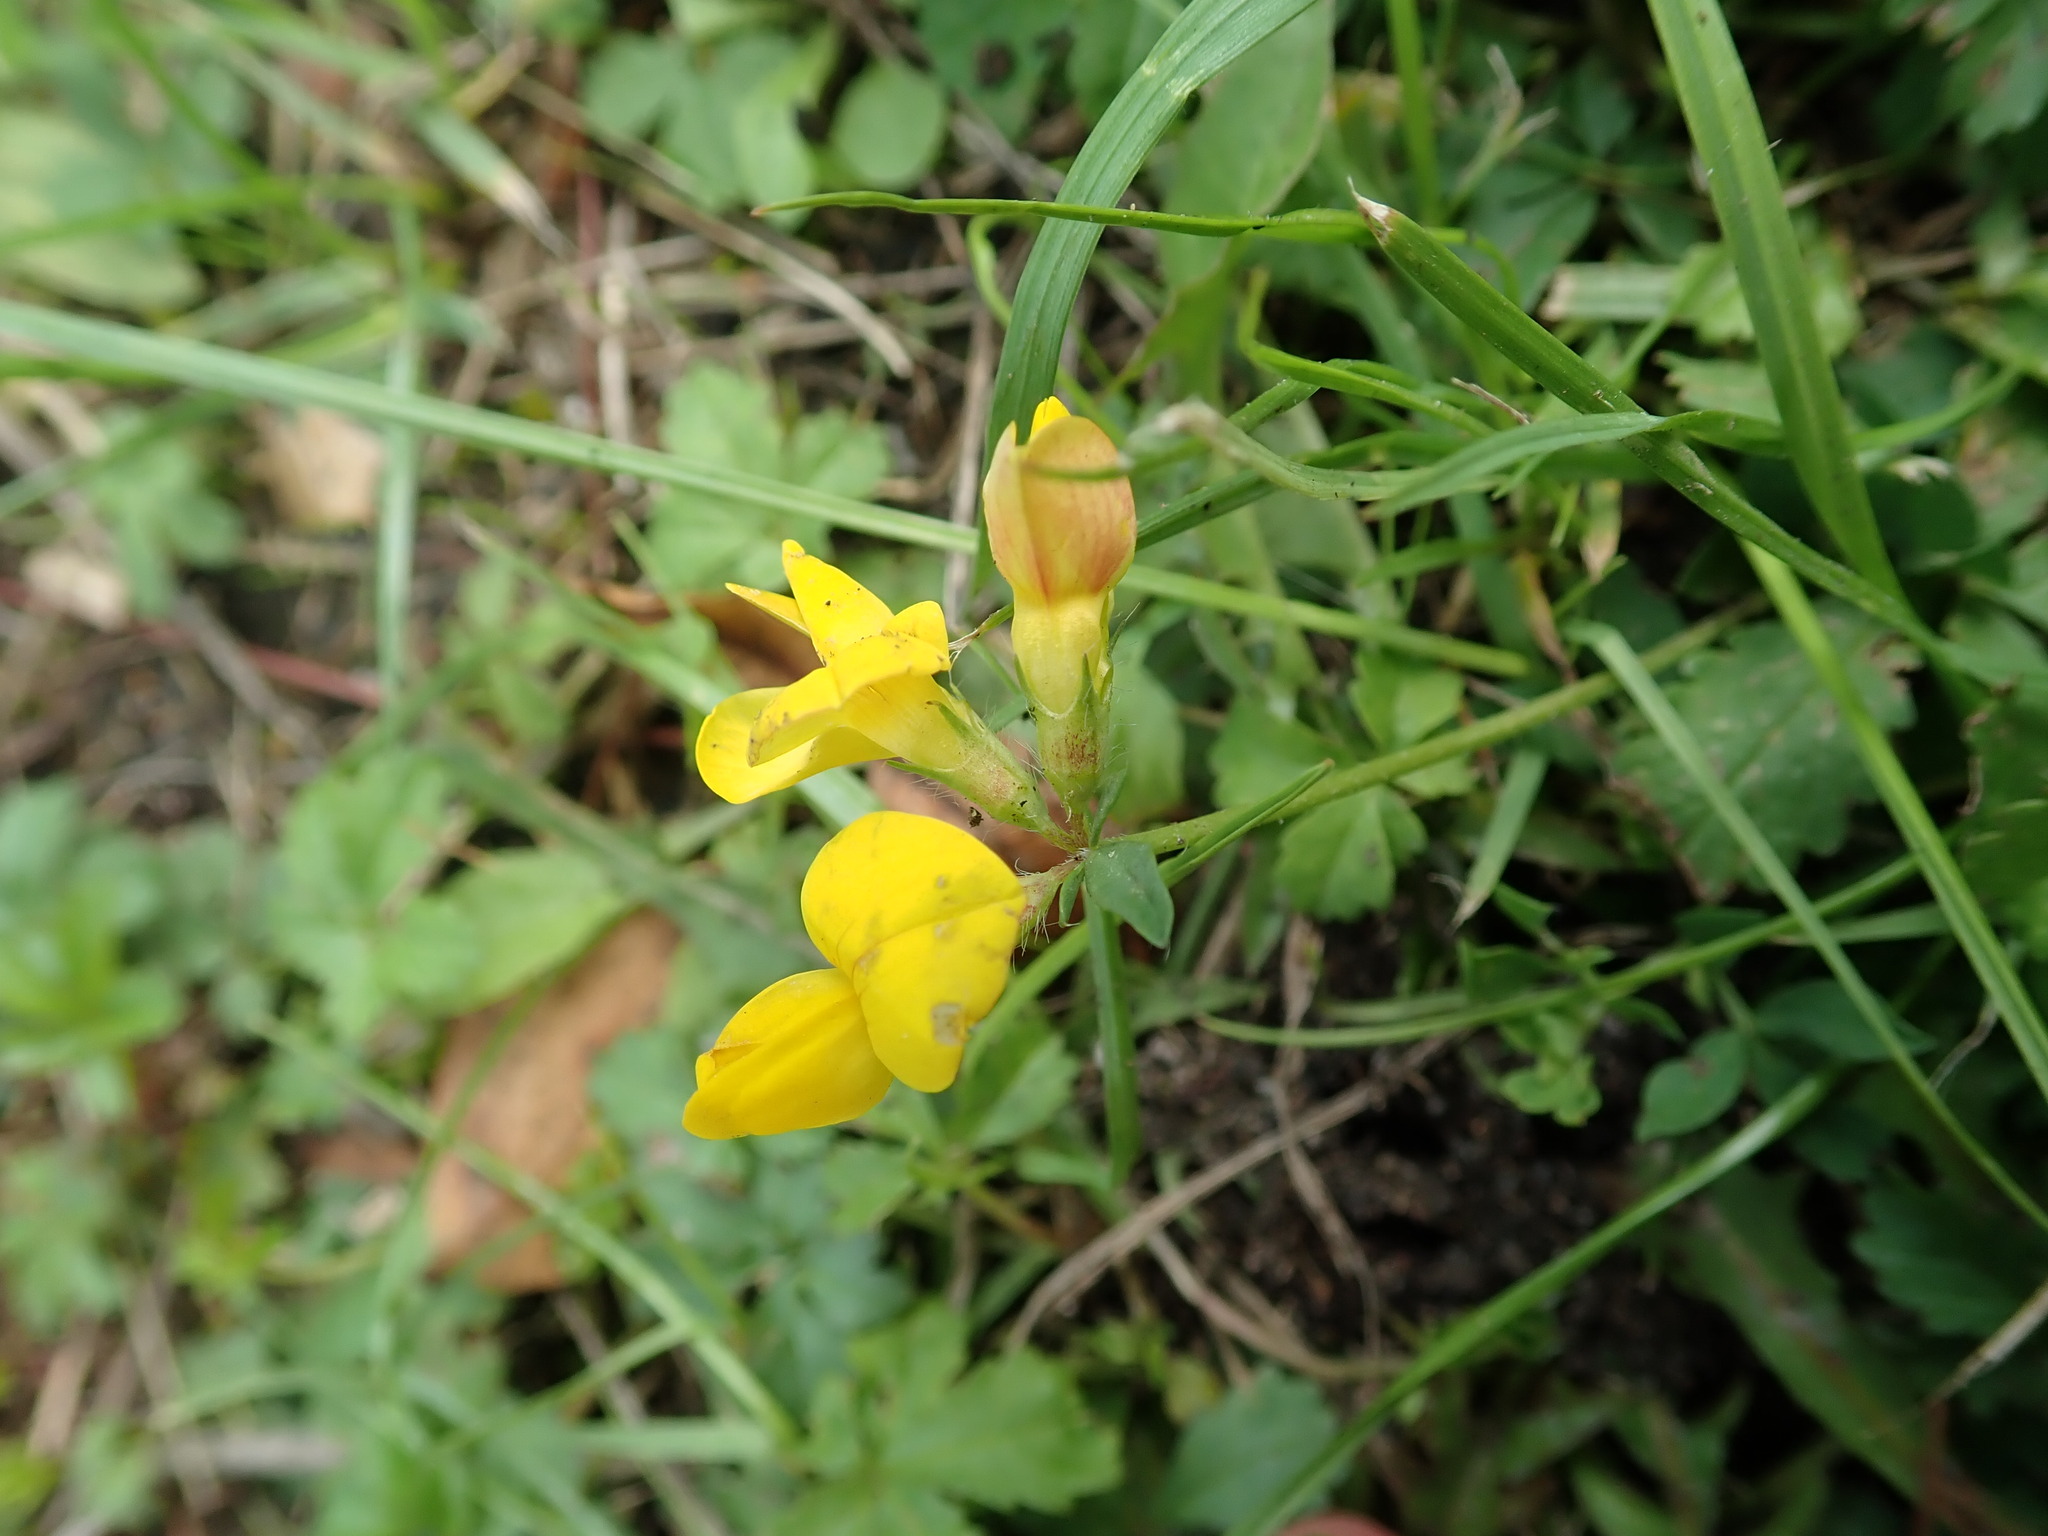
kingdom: Plantae
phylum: Tracheophyta
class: Magnoliopsida
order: Fabales
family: Fabaceae
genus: Lotus
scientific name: Lotus corniculatus
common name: Common bird's-foot-trefoil
